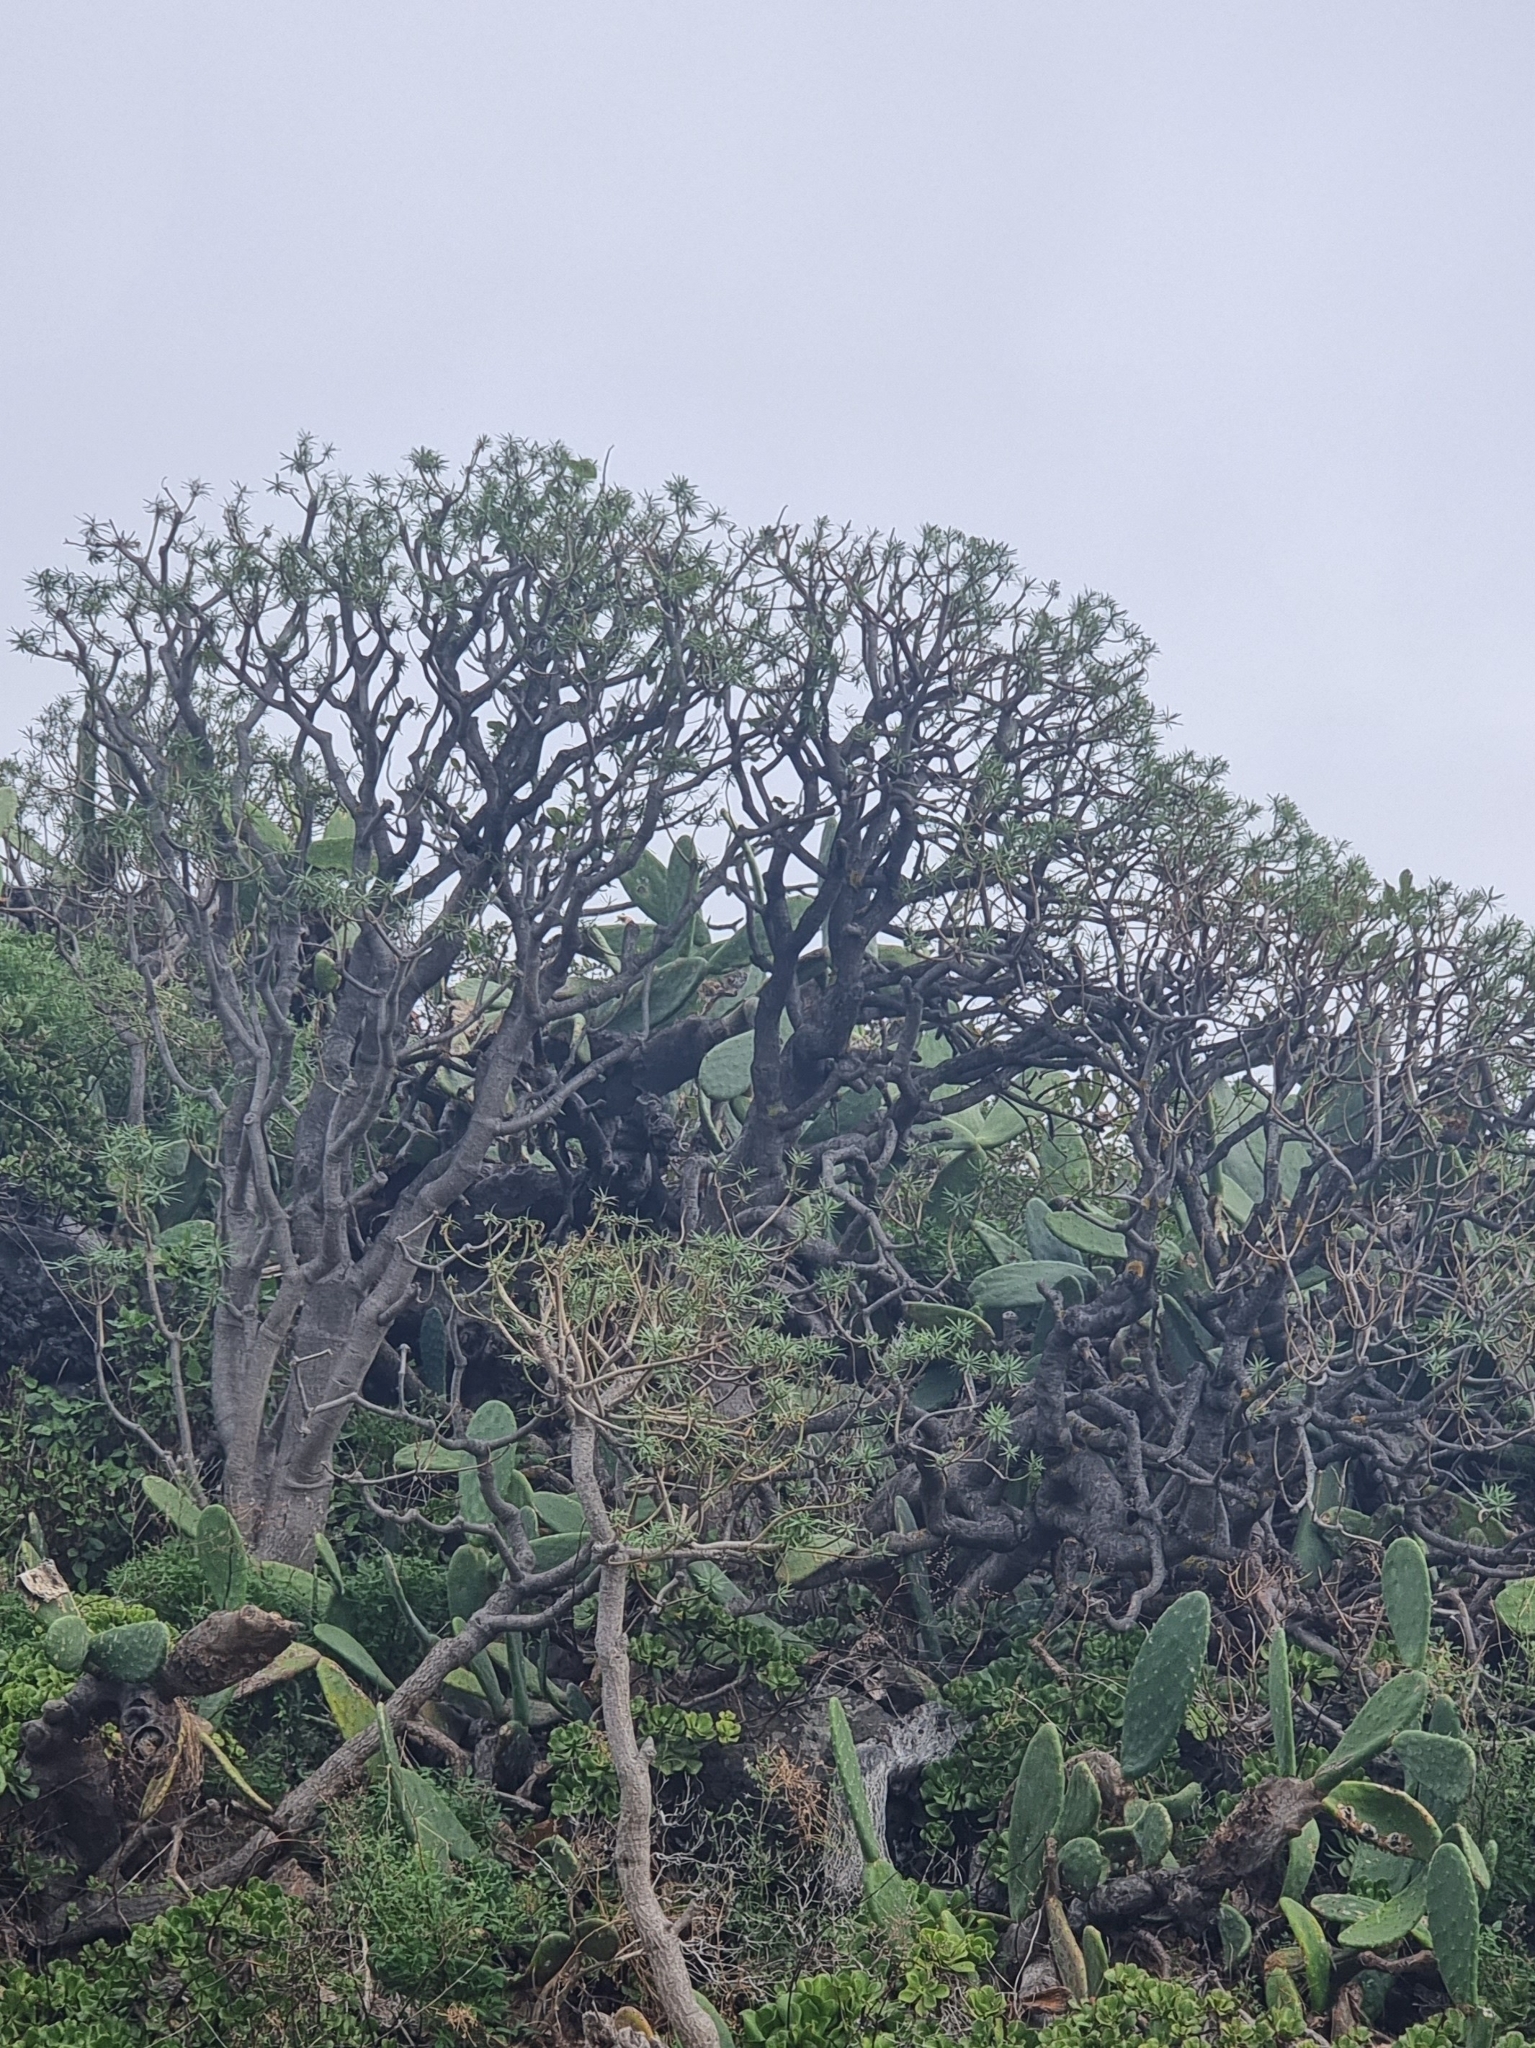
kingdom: Plantae
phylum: Tracheophyta
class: Magnoliopsida
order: Malpighiales
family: Euphorbiaceae
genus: Euphorbia
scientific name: Euphorbia piscatoria
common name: Fish-stunning spurge
